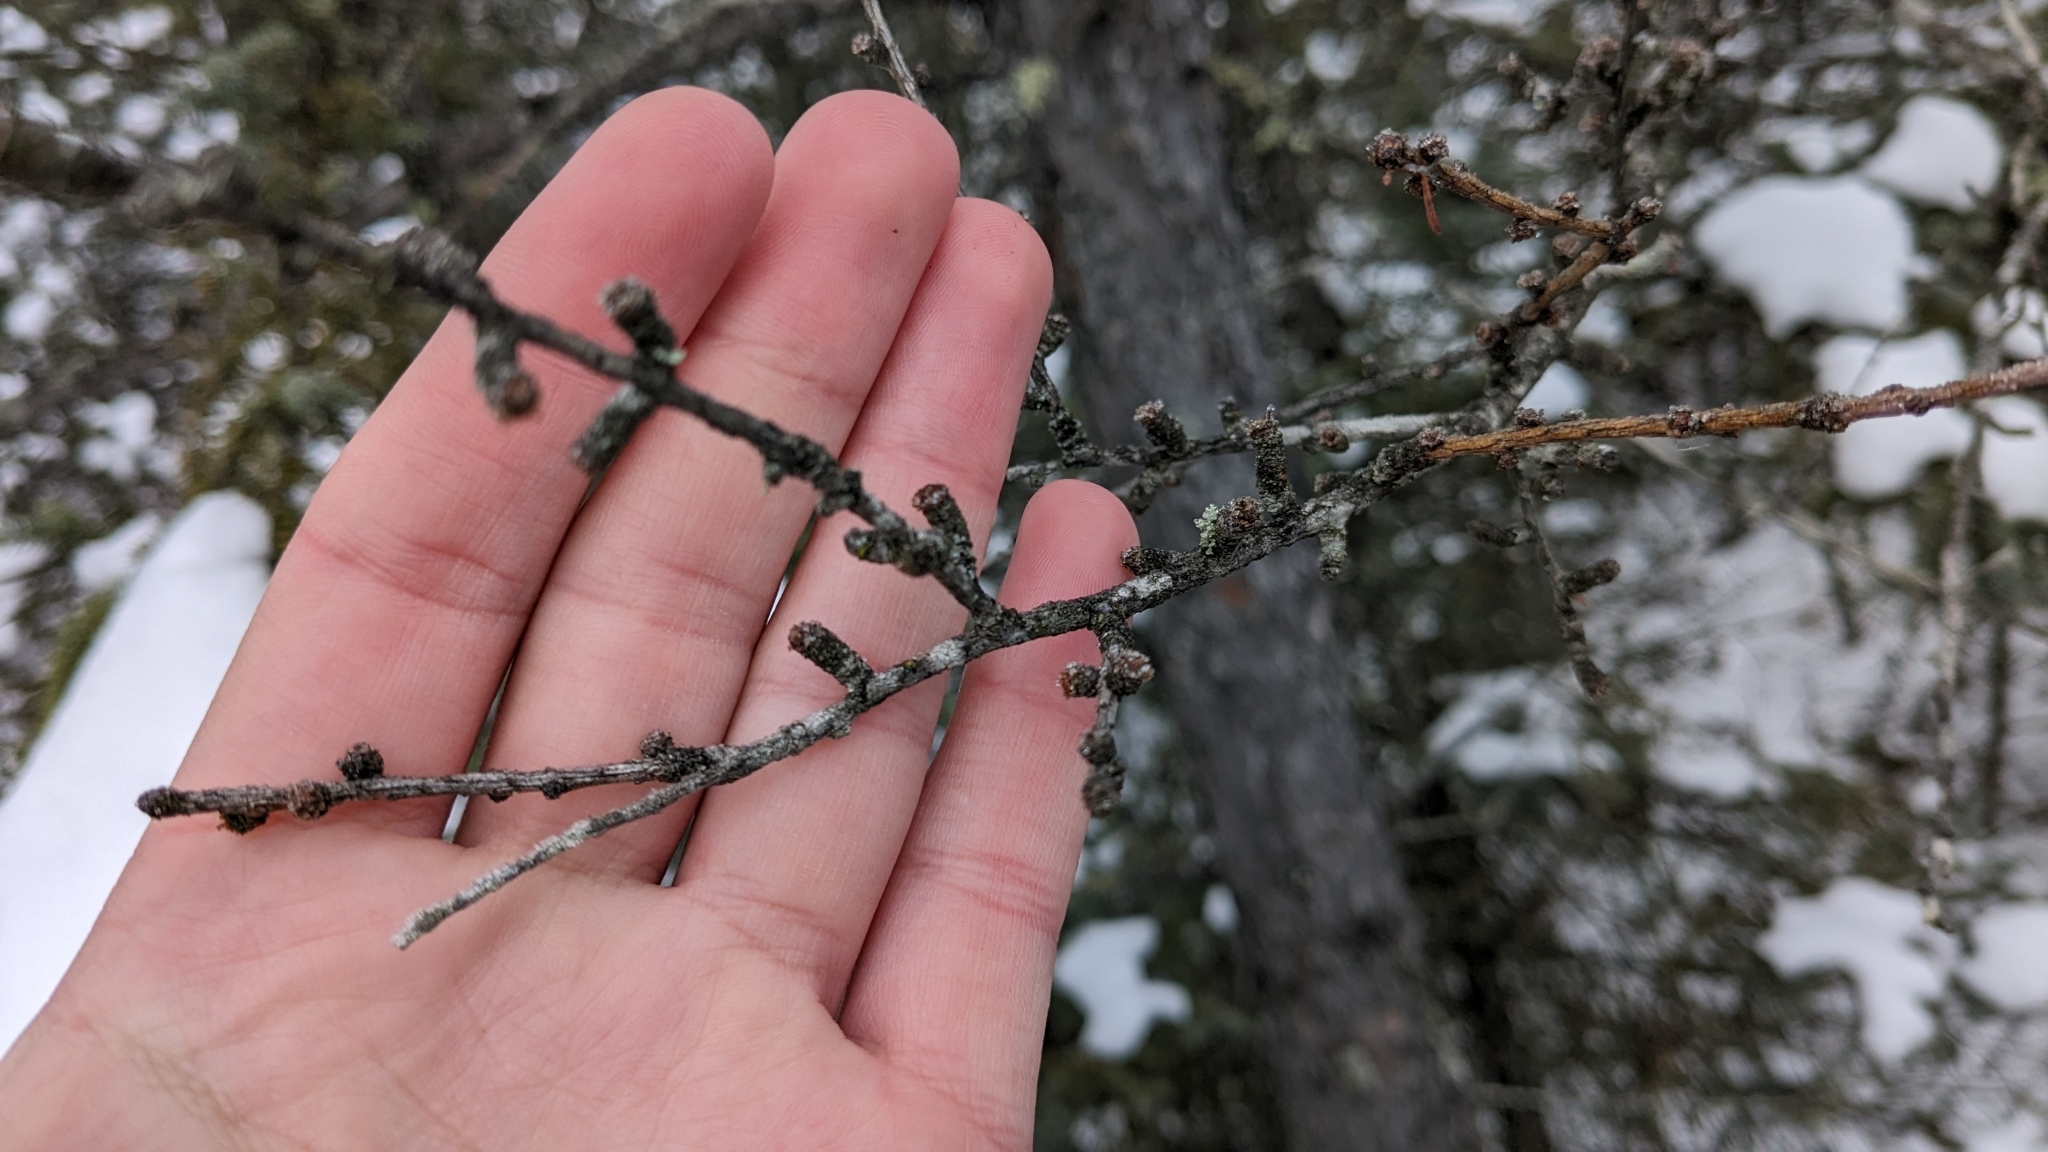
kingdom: Plantae
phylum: Tracheophyta
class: Pinopsida
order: Pinales
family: Pinaceae
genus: Larix
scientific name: Larix laricina
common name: American larch
